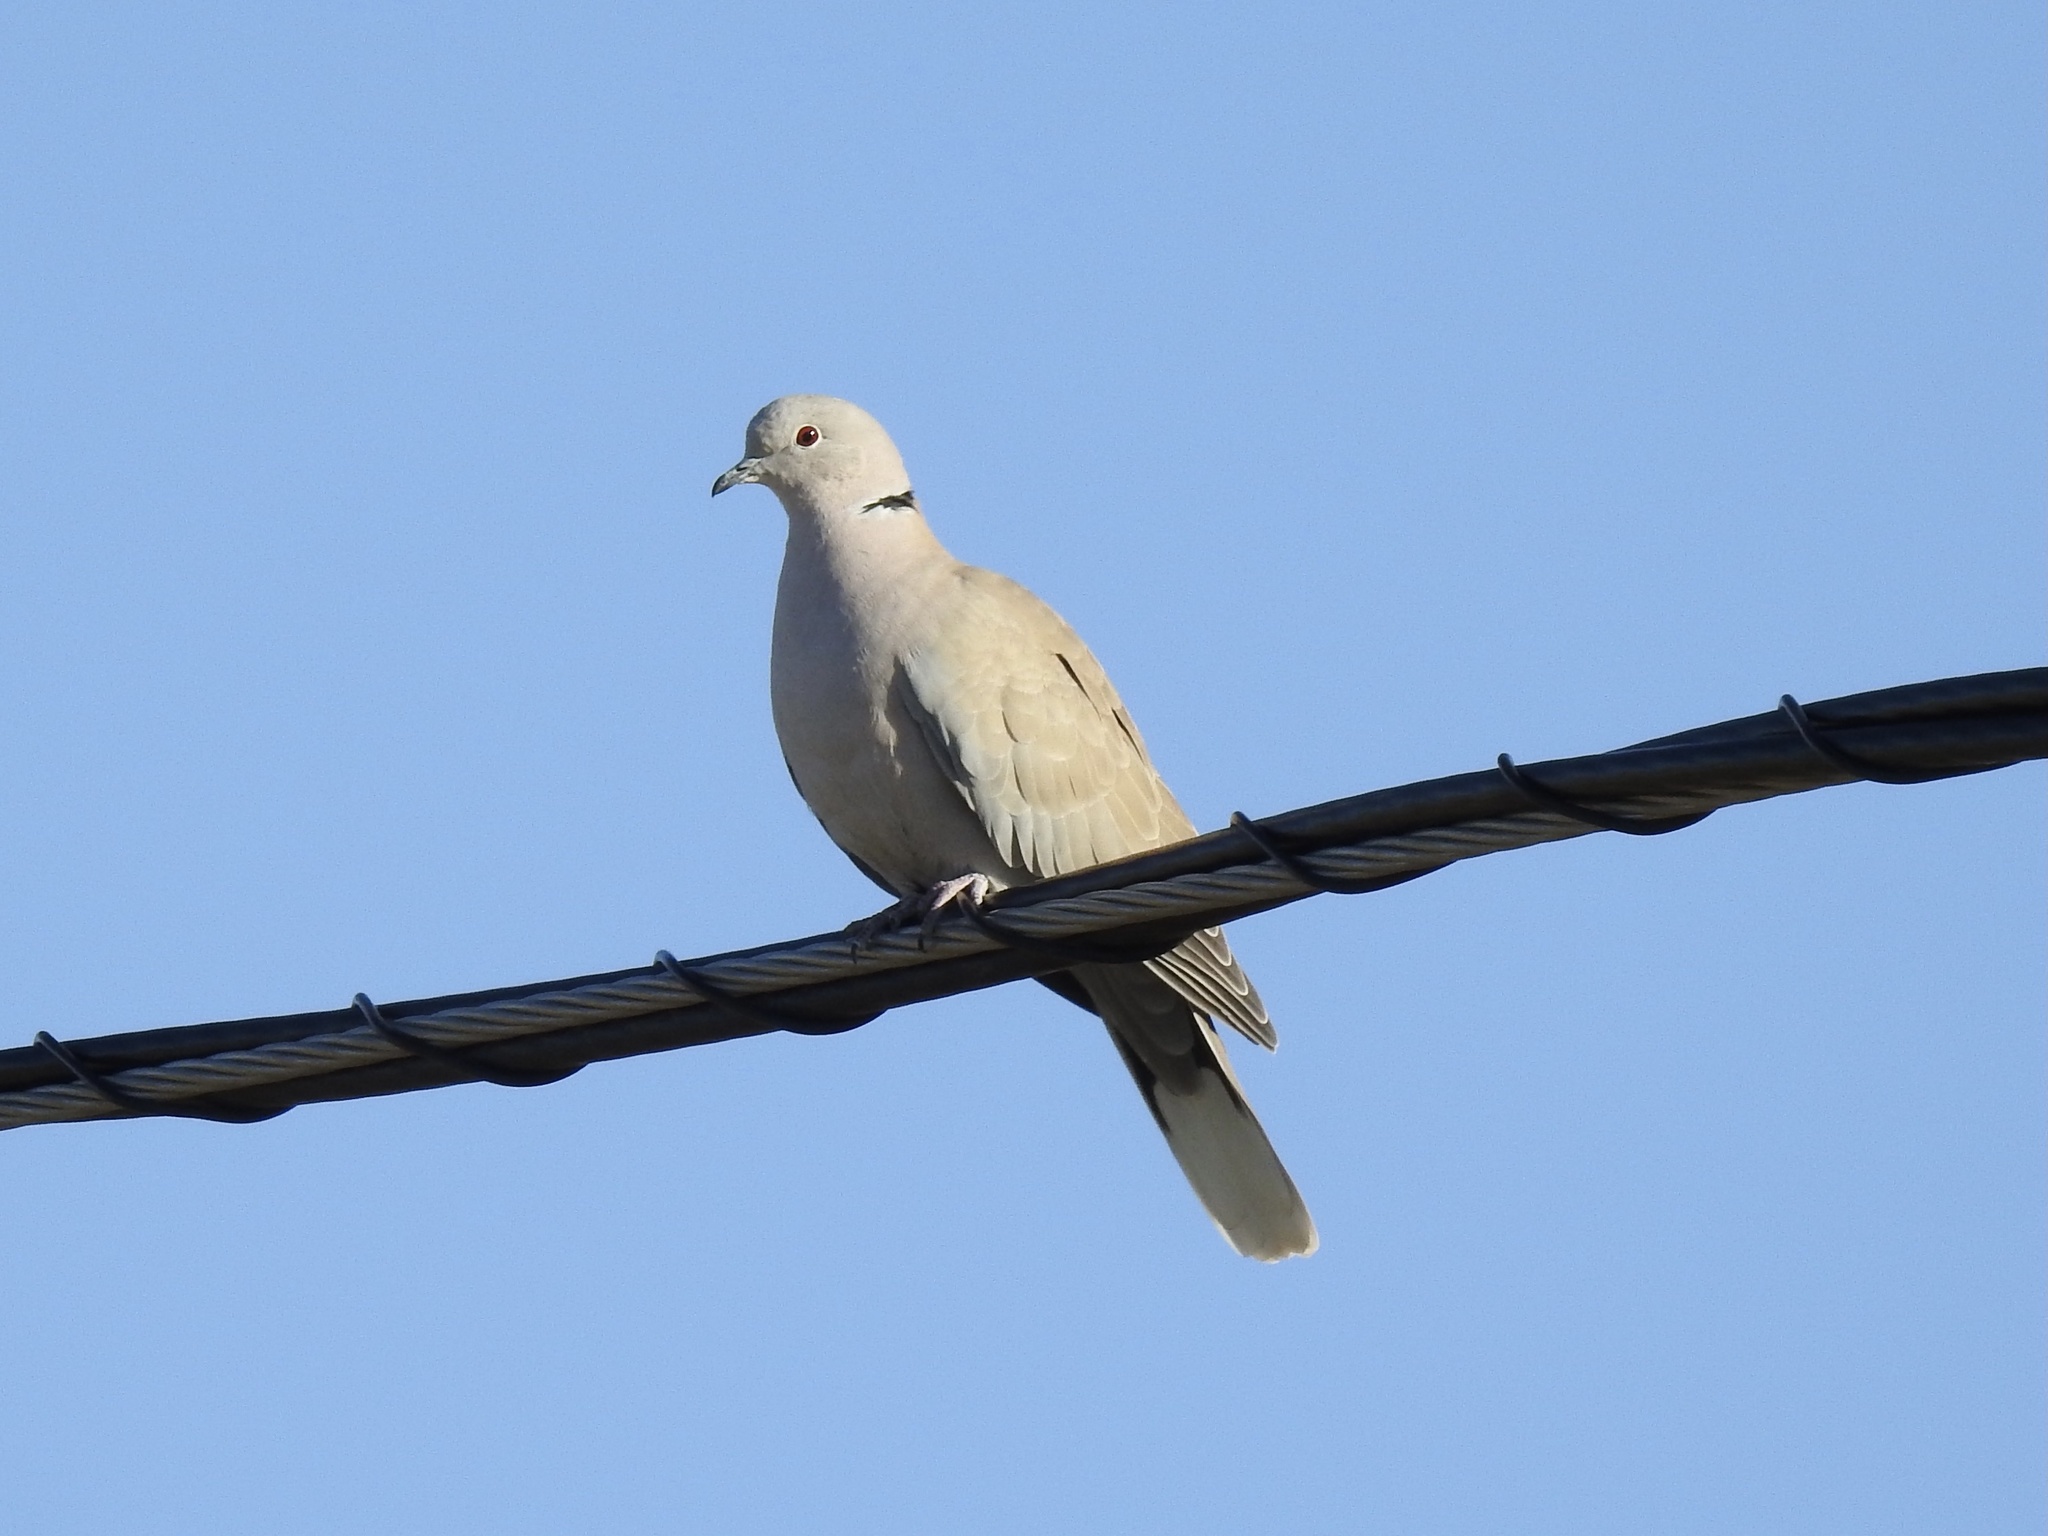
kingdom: Animalia
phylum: Chordata
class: Aves
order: Columbiformes
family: Columbidae
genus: Streptopelia
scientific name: Streptopelia decaocto
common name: Eurasian collared dove
